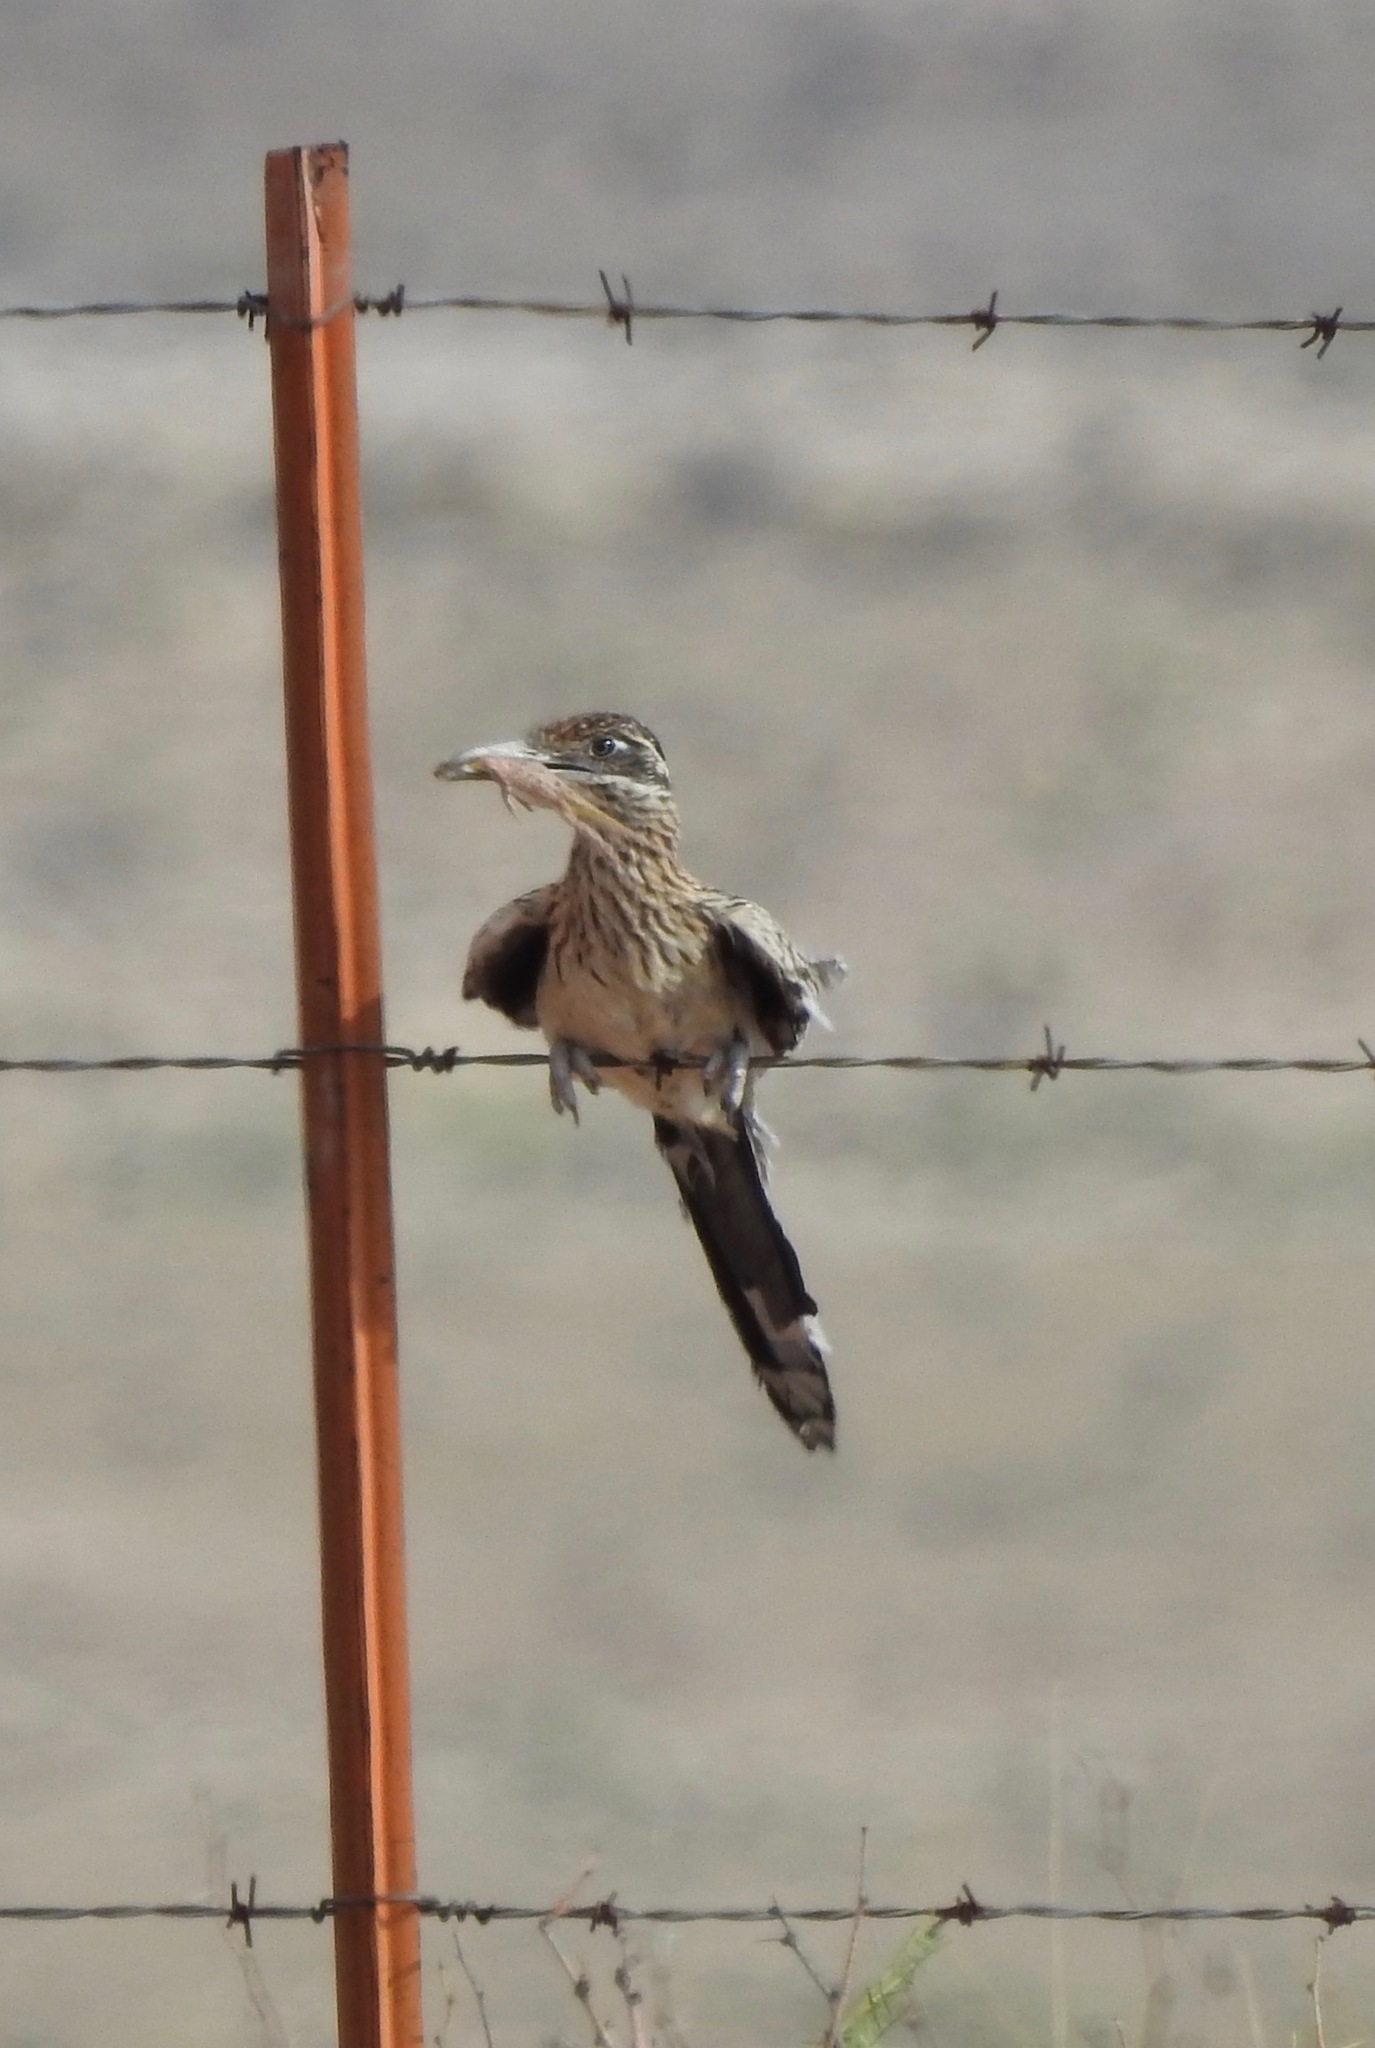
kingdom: Animalia
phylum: Chordata
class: Aves
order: Cuculiformes
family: Cuculidae
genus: Geococcyx
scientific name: Geococcyx californianus
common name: Greater roadrunner
